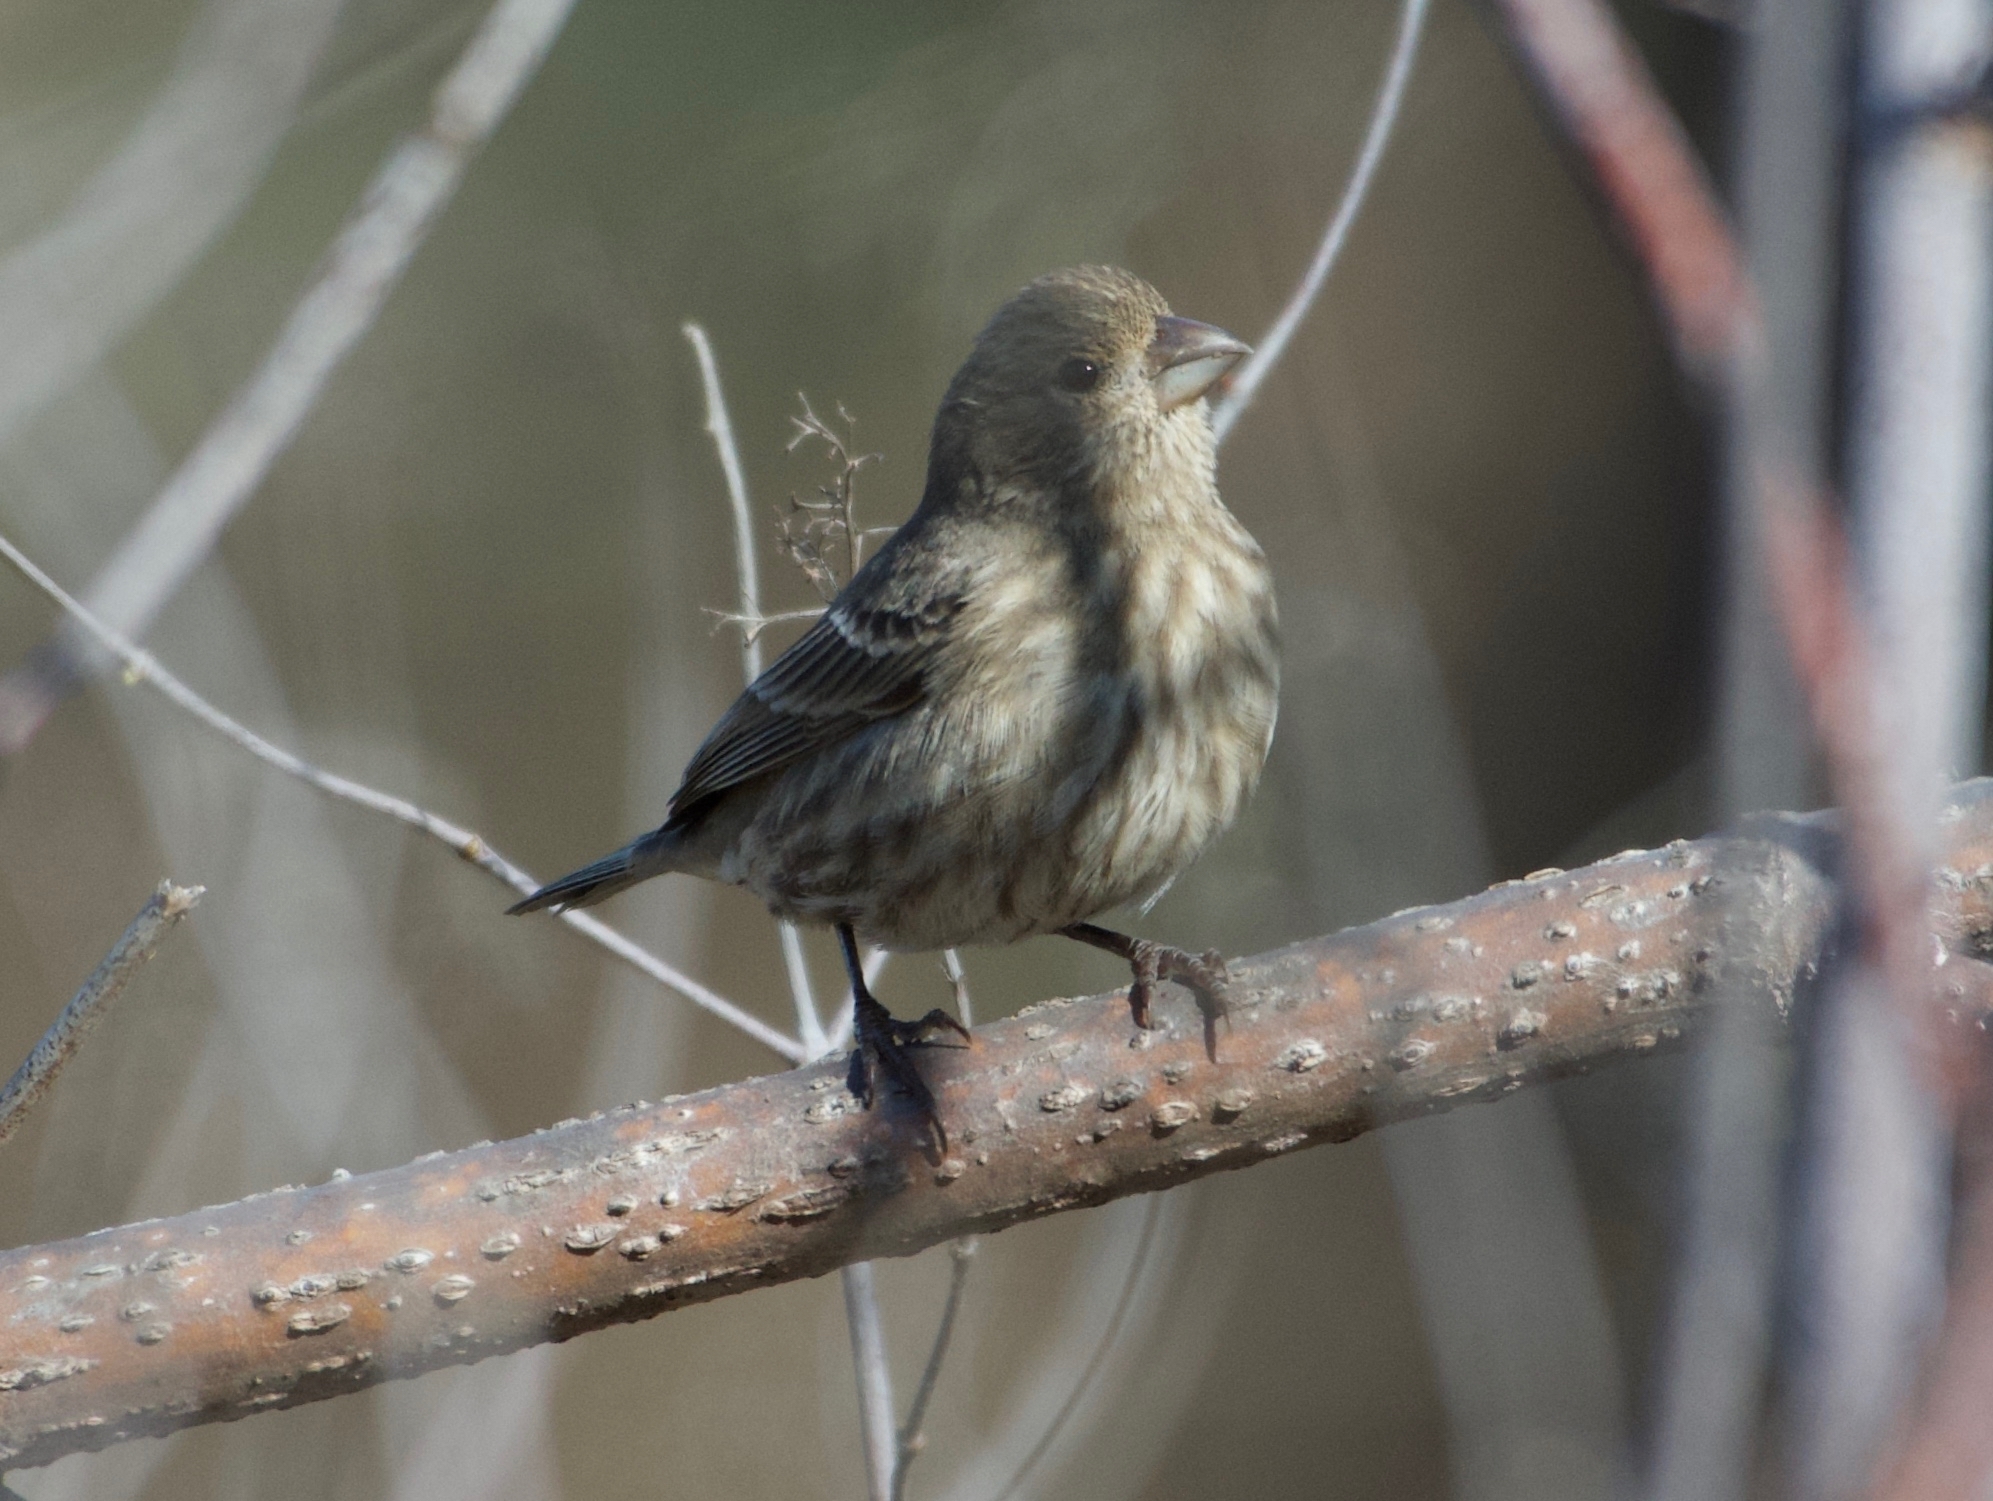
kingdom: Animalia
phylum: Chordata
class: Aves
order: Passeriformes
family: Fringillidae
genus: Haemorhous
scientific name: Haemorhous mexicanus
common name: House finch
